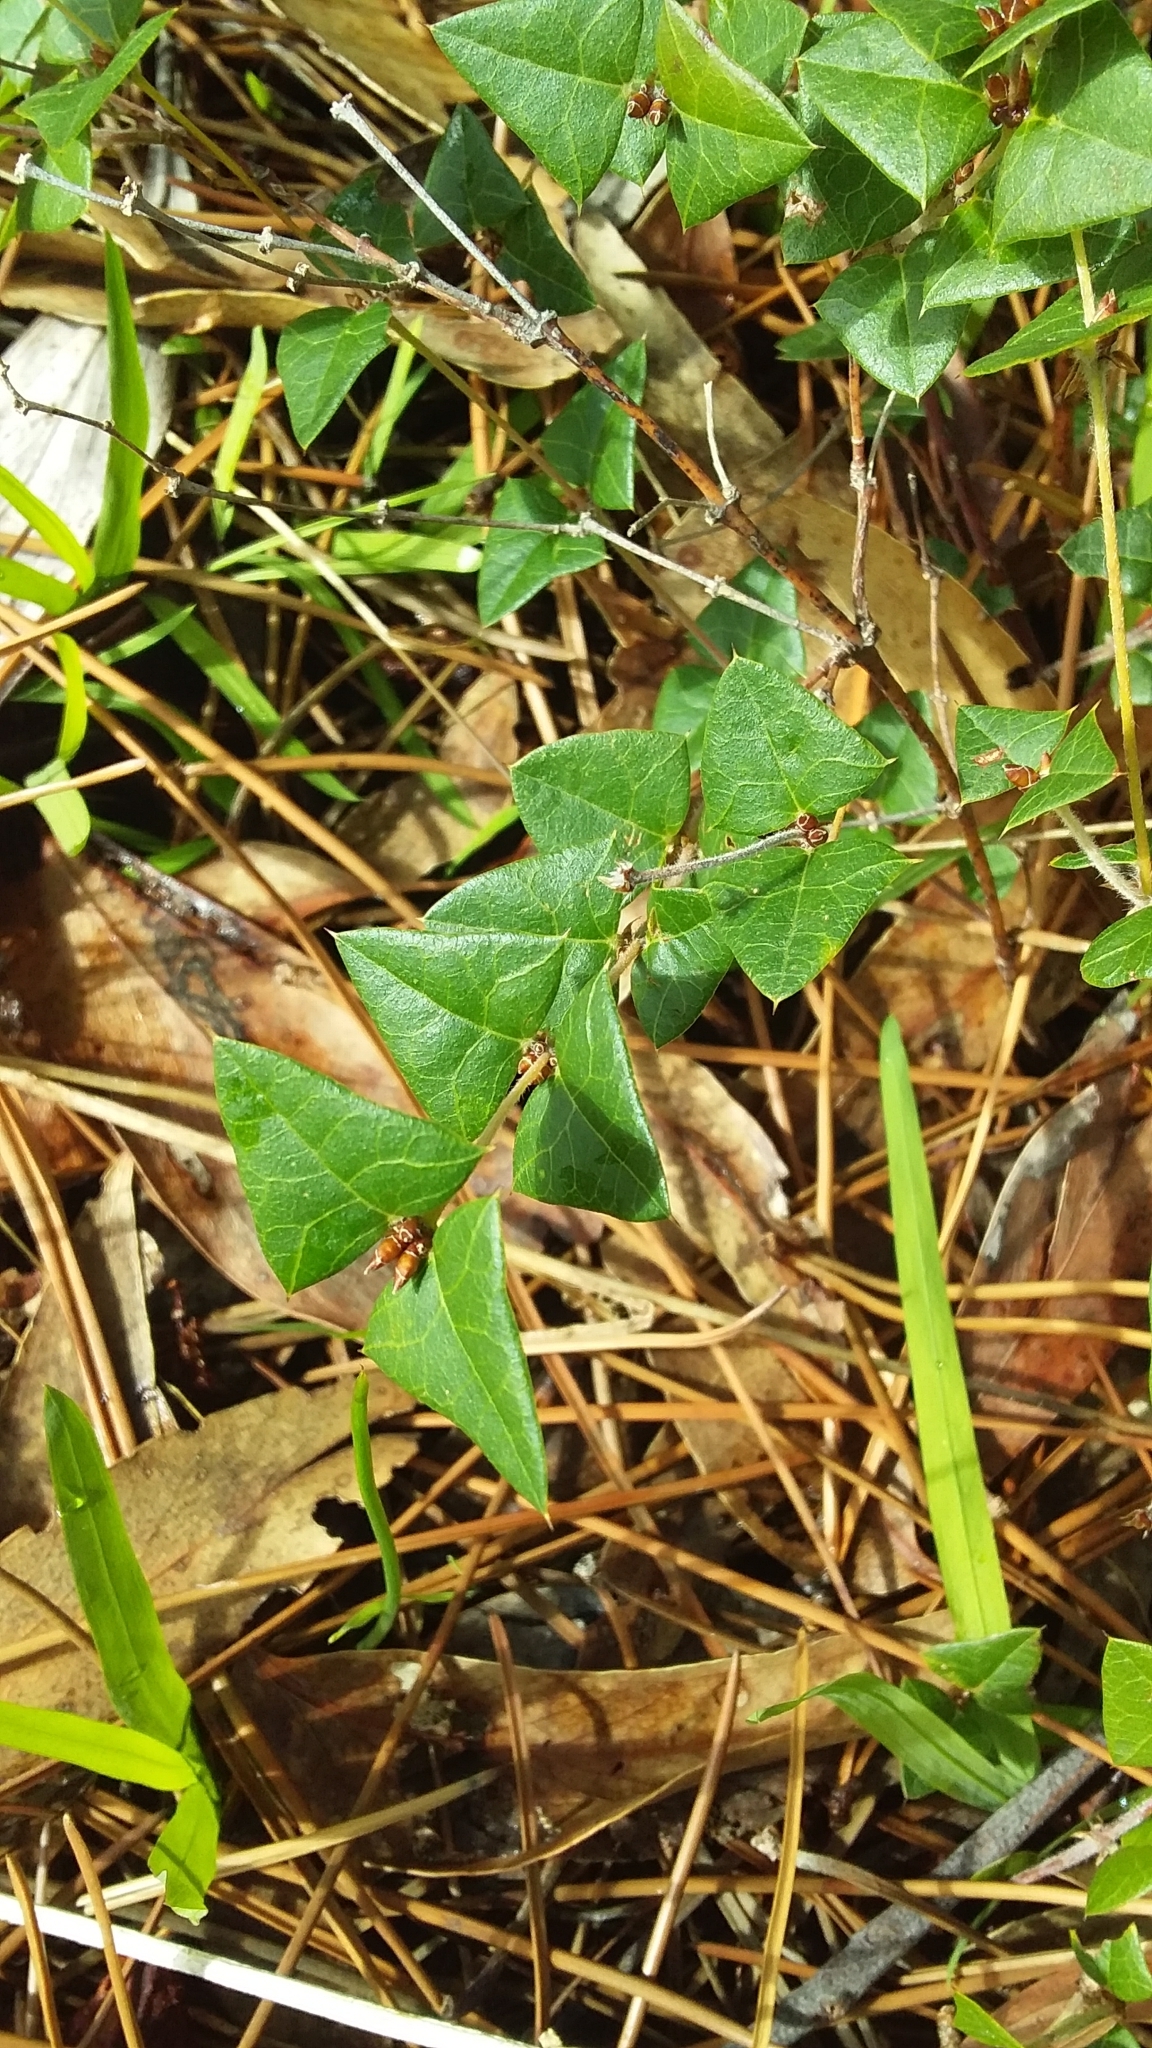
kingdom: Plantae
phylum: Tracheophyta
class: Magnoliopsida
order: Fabales
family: Fabaceae
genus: Platylobium
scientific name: Platylobium obtusangulum
